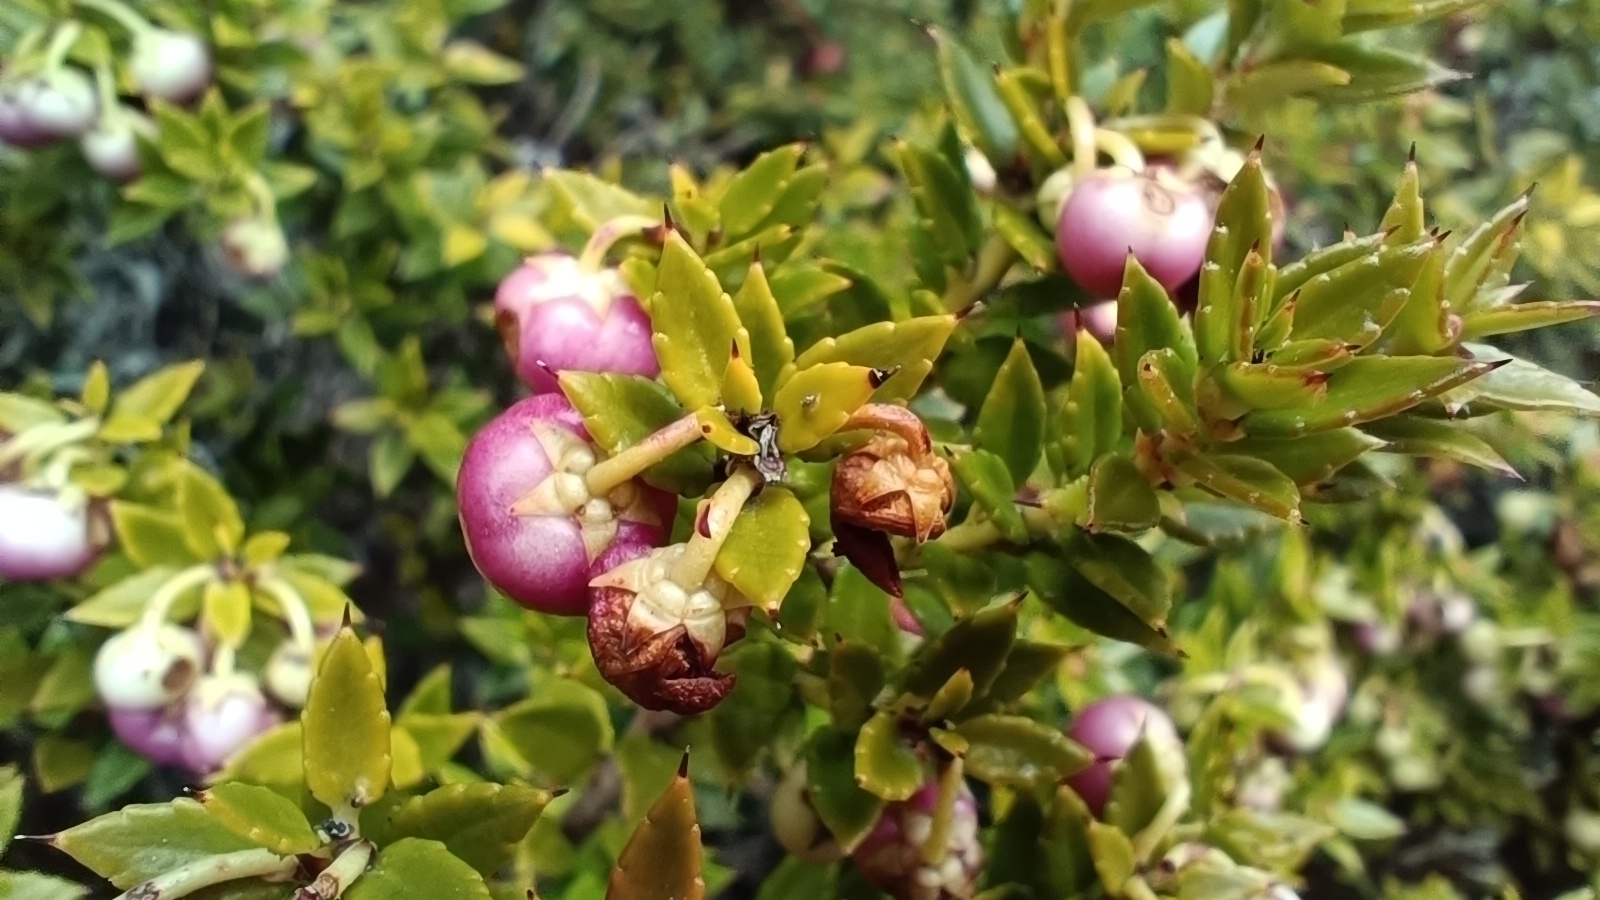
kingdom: Plantae
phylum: Tracheophyta
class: Magnoliopsida
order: Ericales
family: Ericaceae
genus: Gaultheria
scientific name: Gaultheria mucronata
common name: Prickly heath
